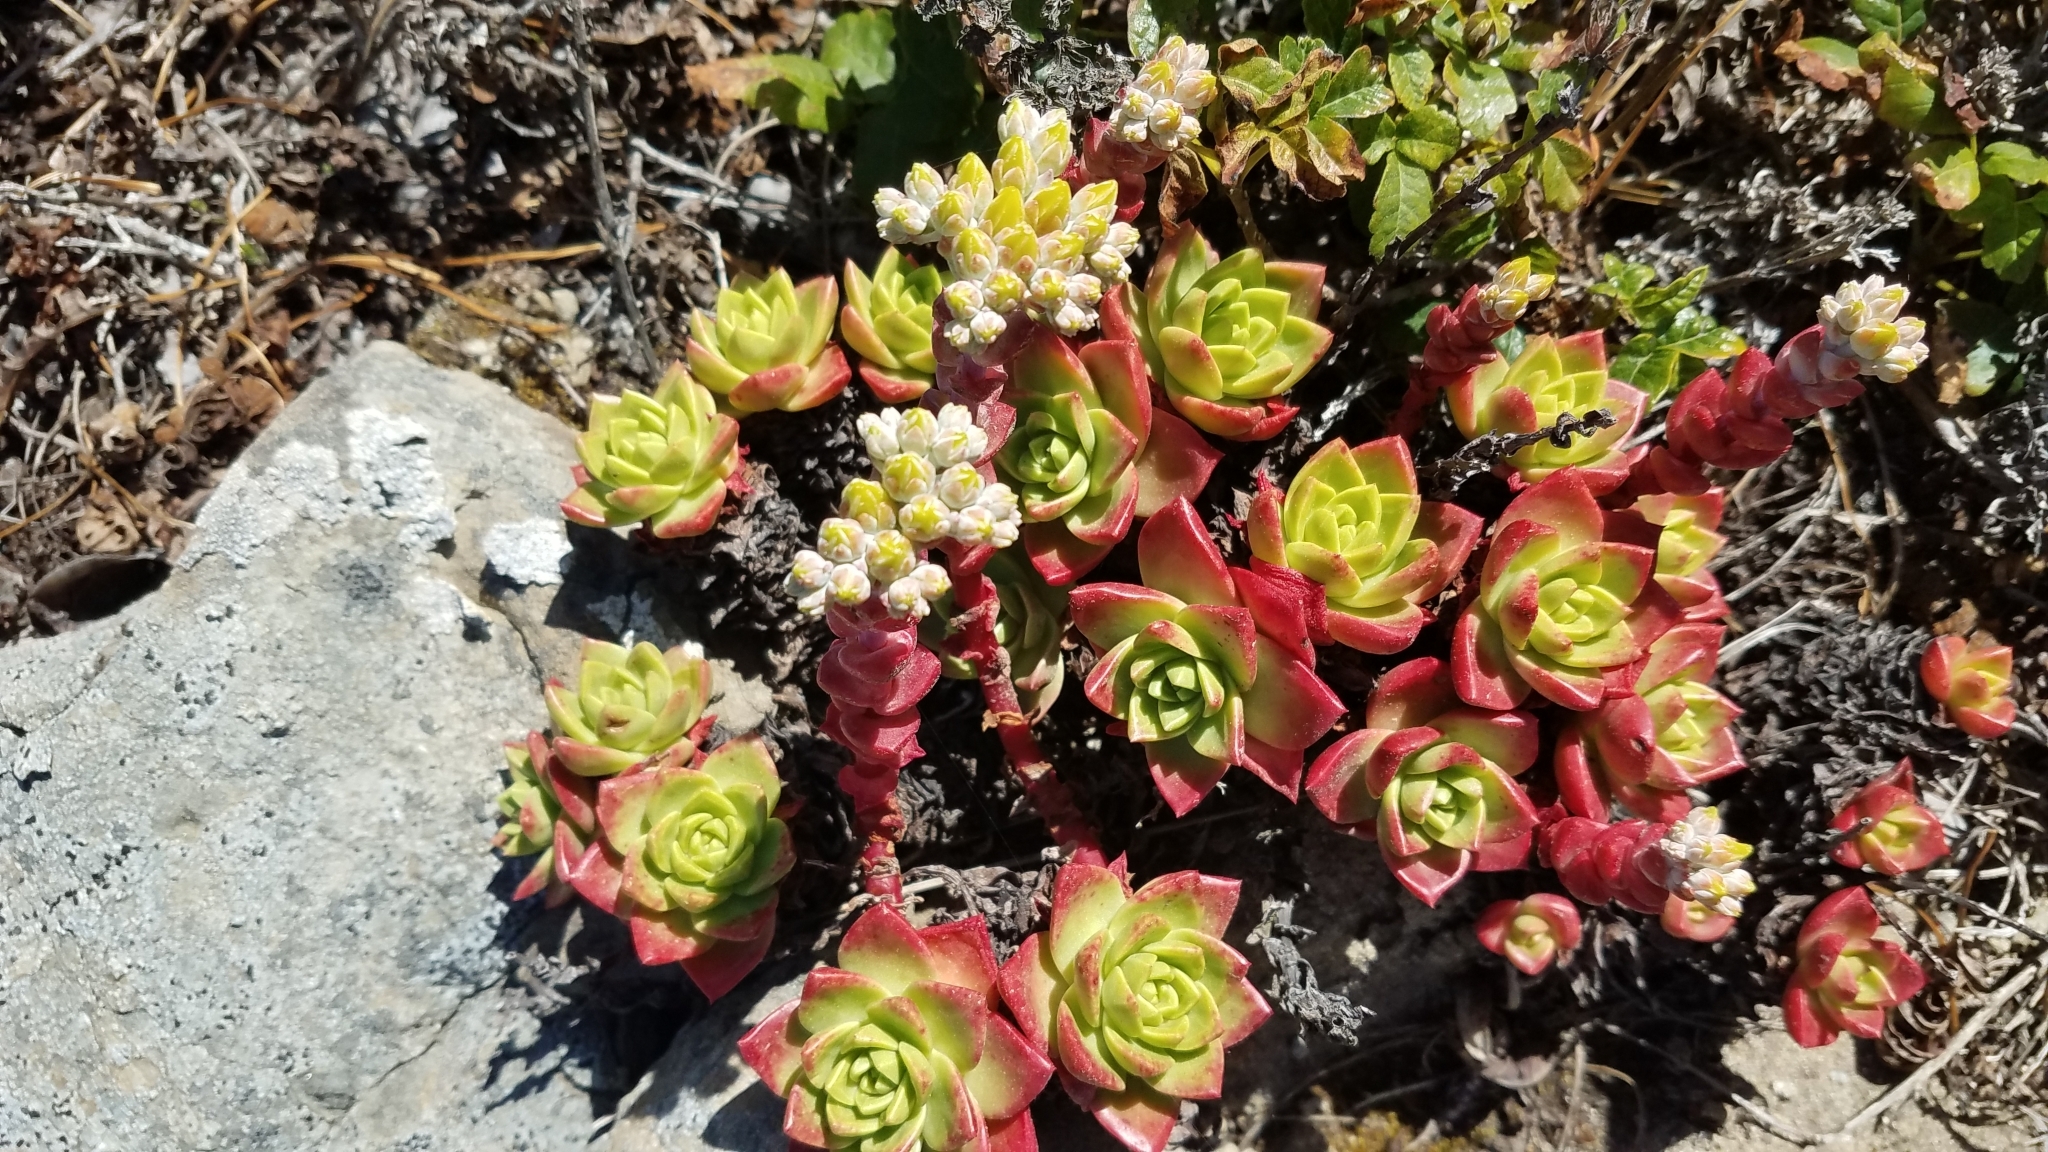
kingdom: Plantae
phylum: Tracheophyta
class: Magnoliopsida
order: Saxifragales
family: Crassulaceae
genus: Dudleya
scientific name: Dudleya farinosa
